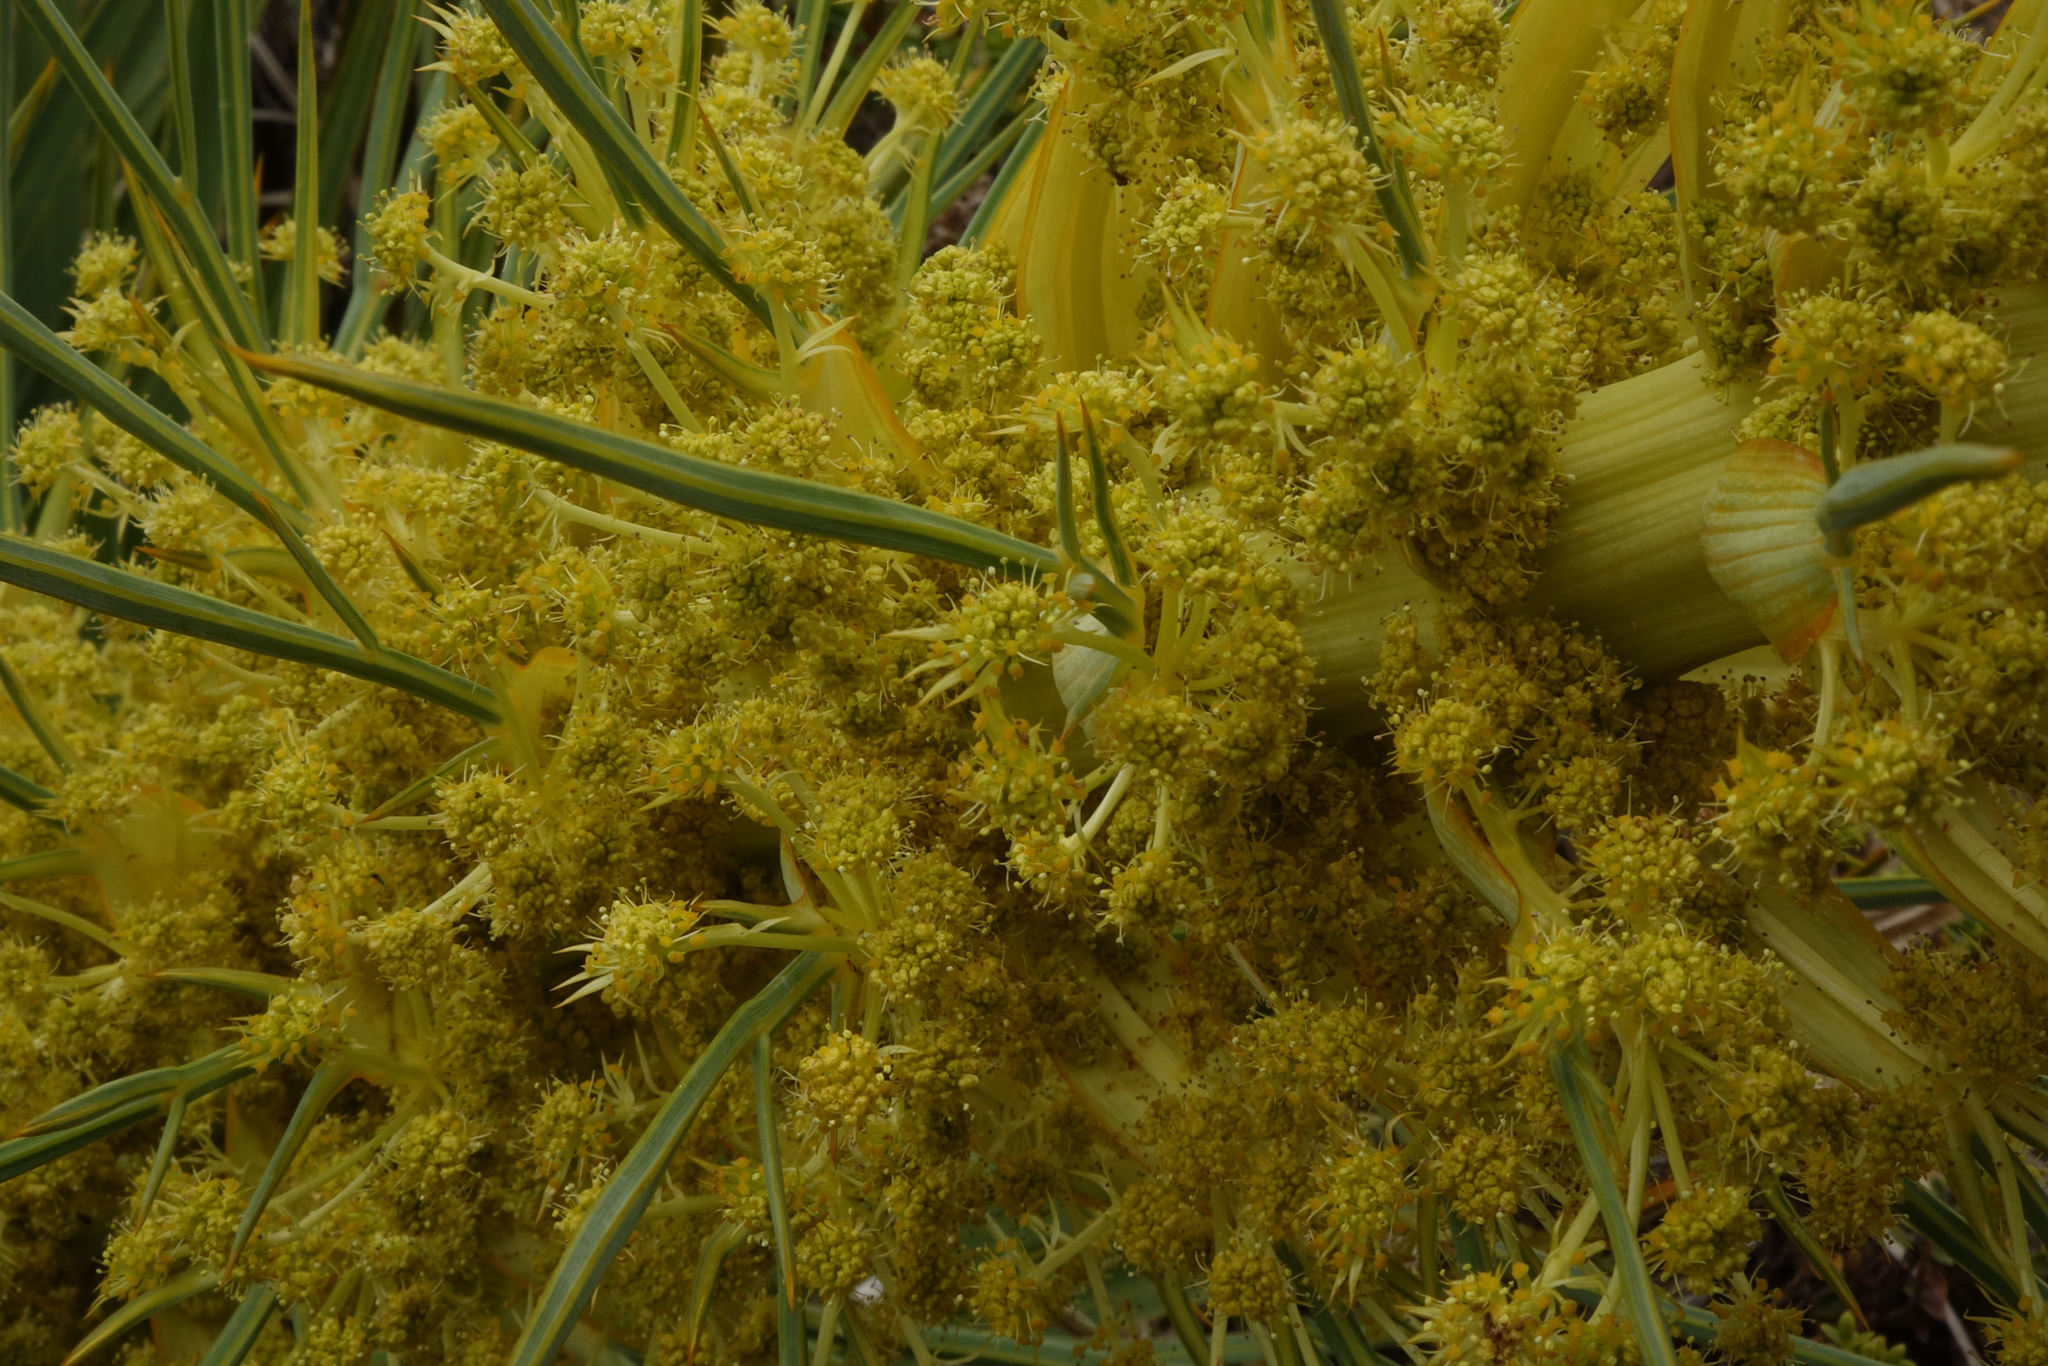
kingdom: Plantae
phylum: Tracheophyta
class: Magnoliopsida
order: Apiales
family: Apiaceae
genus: Aciphylla
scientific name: Aciphylla scott-thomsonii
